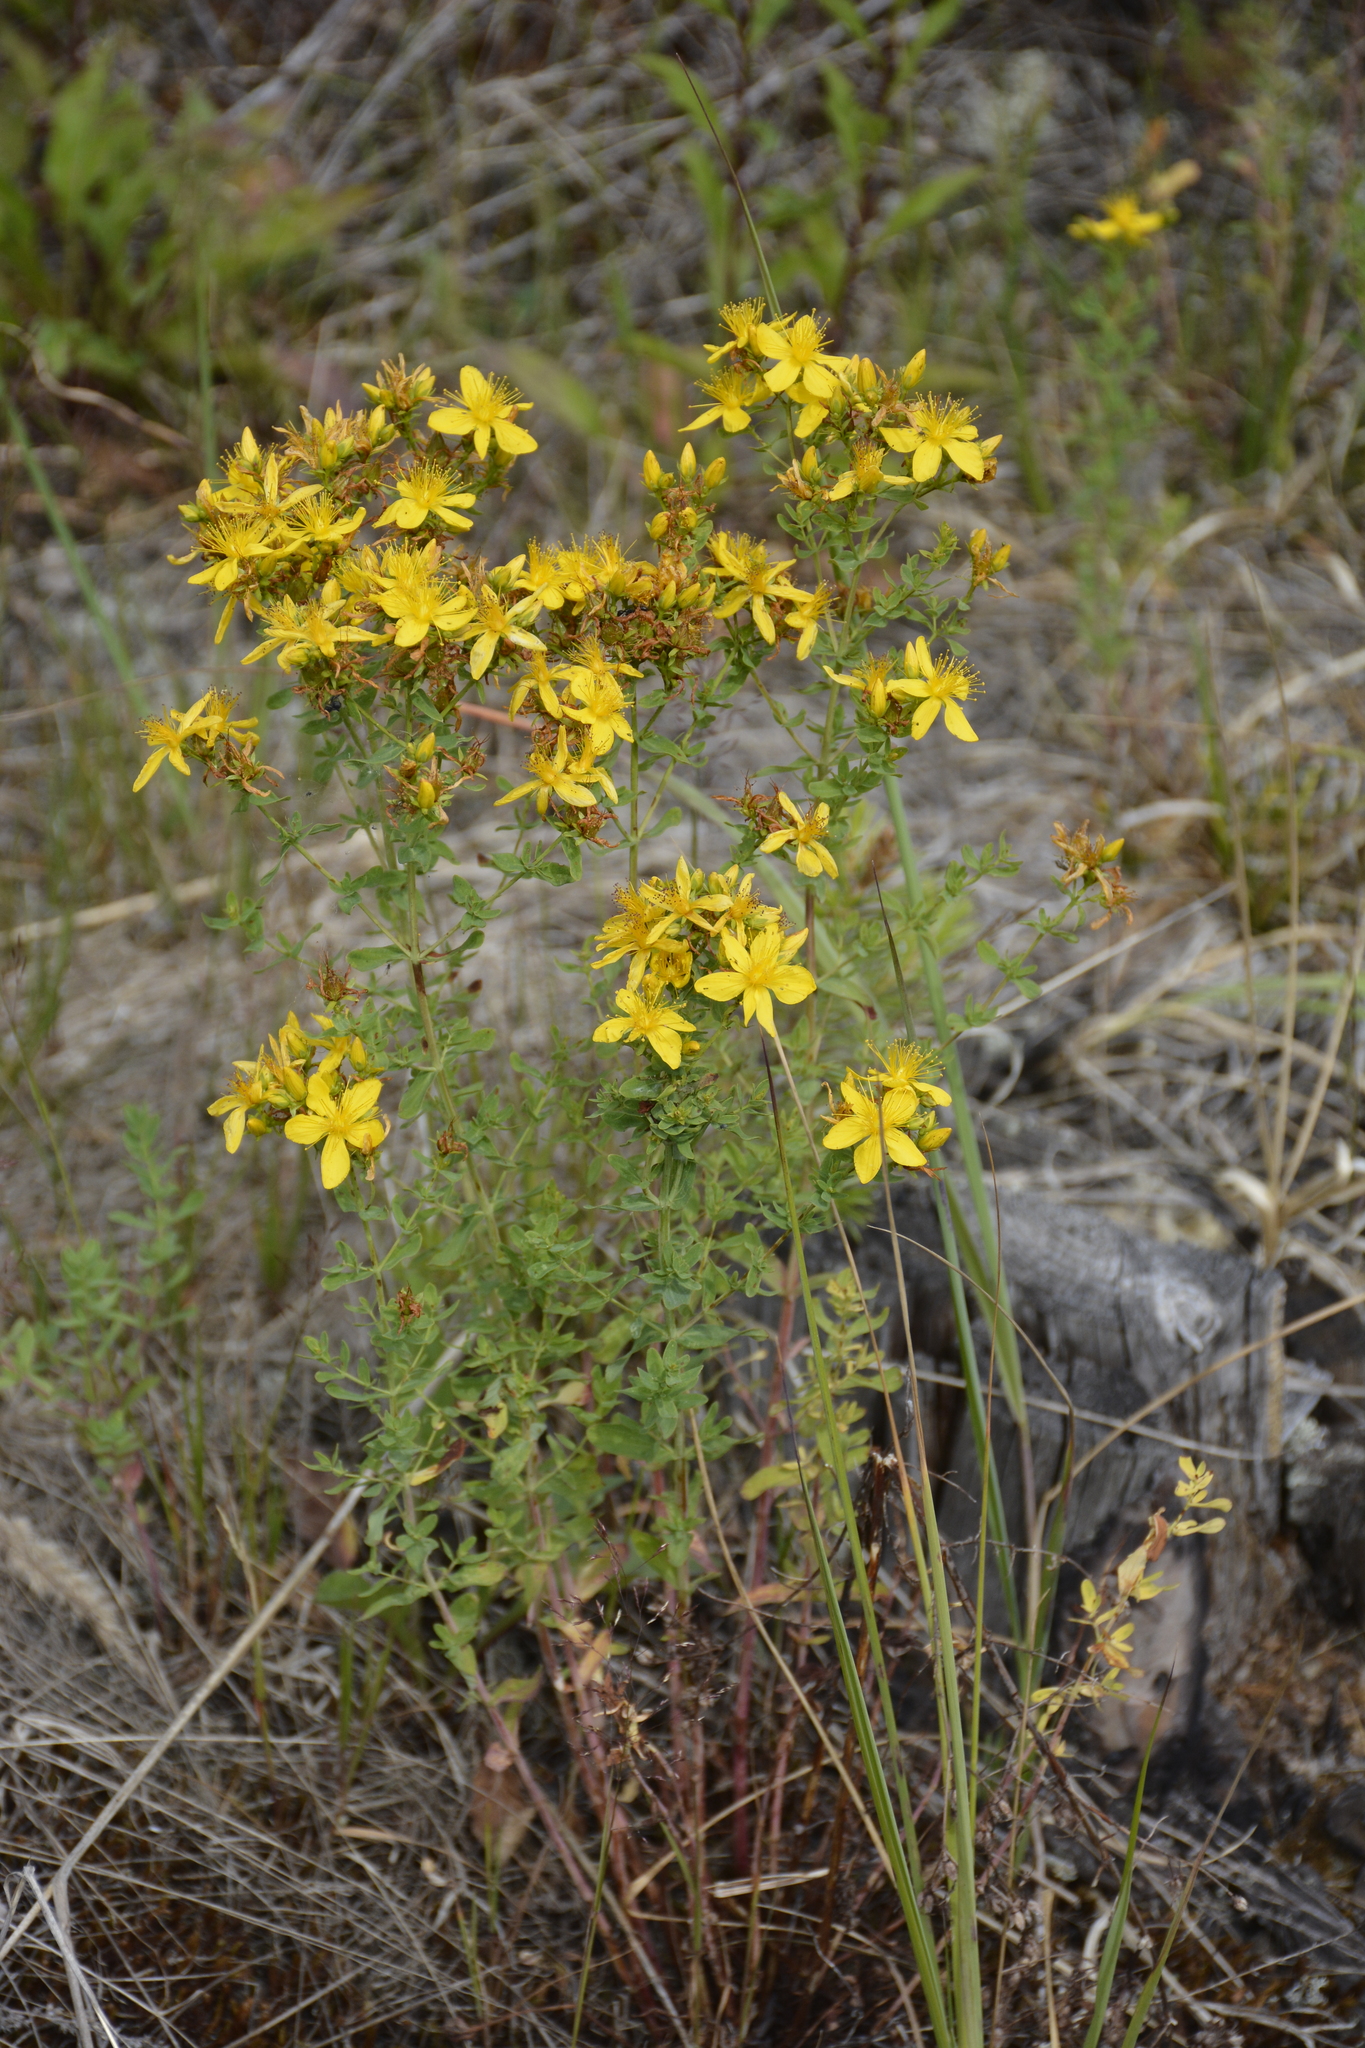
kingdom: Plantae
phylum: Tracheophyta
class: Magnoliopsida
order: Malpighiales
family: Hypericaceae
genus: Hypericum
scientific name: Hypericum perforatum
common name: Common st. johnswort
